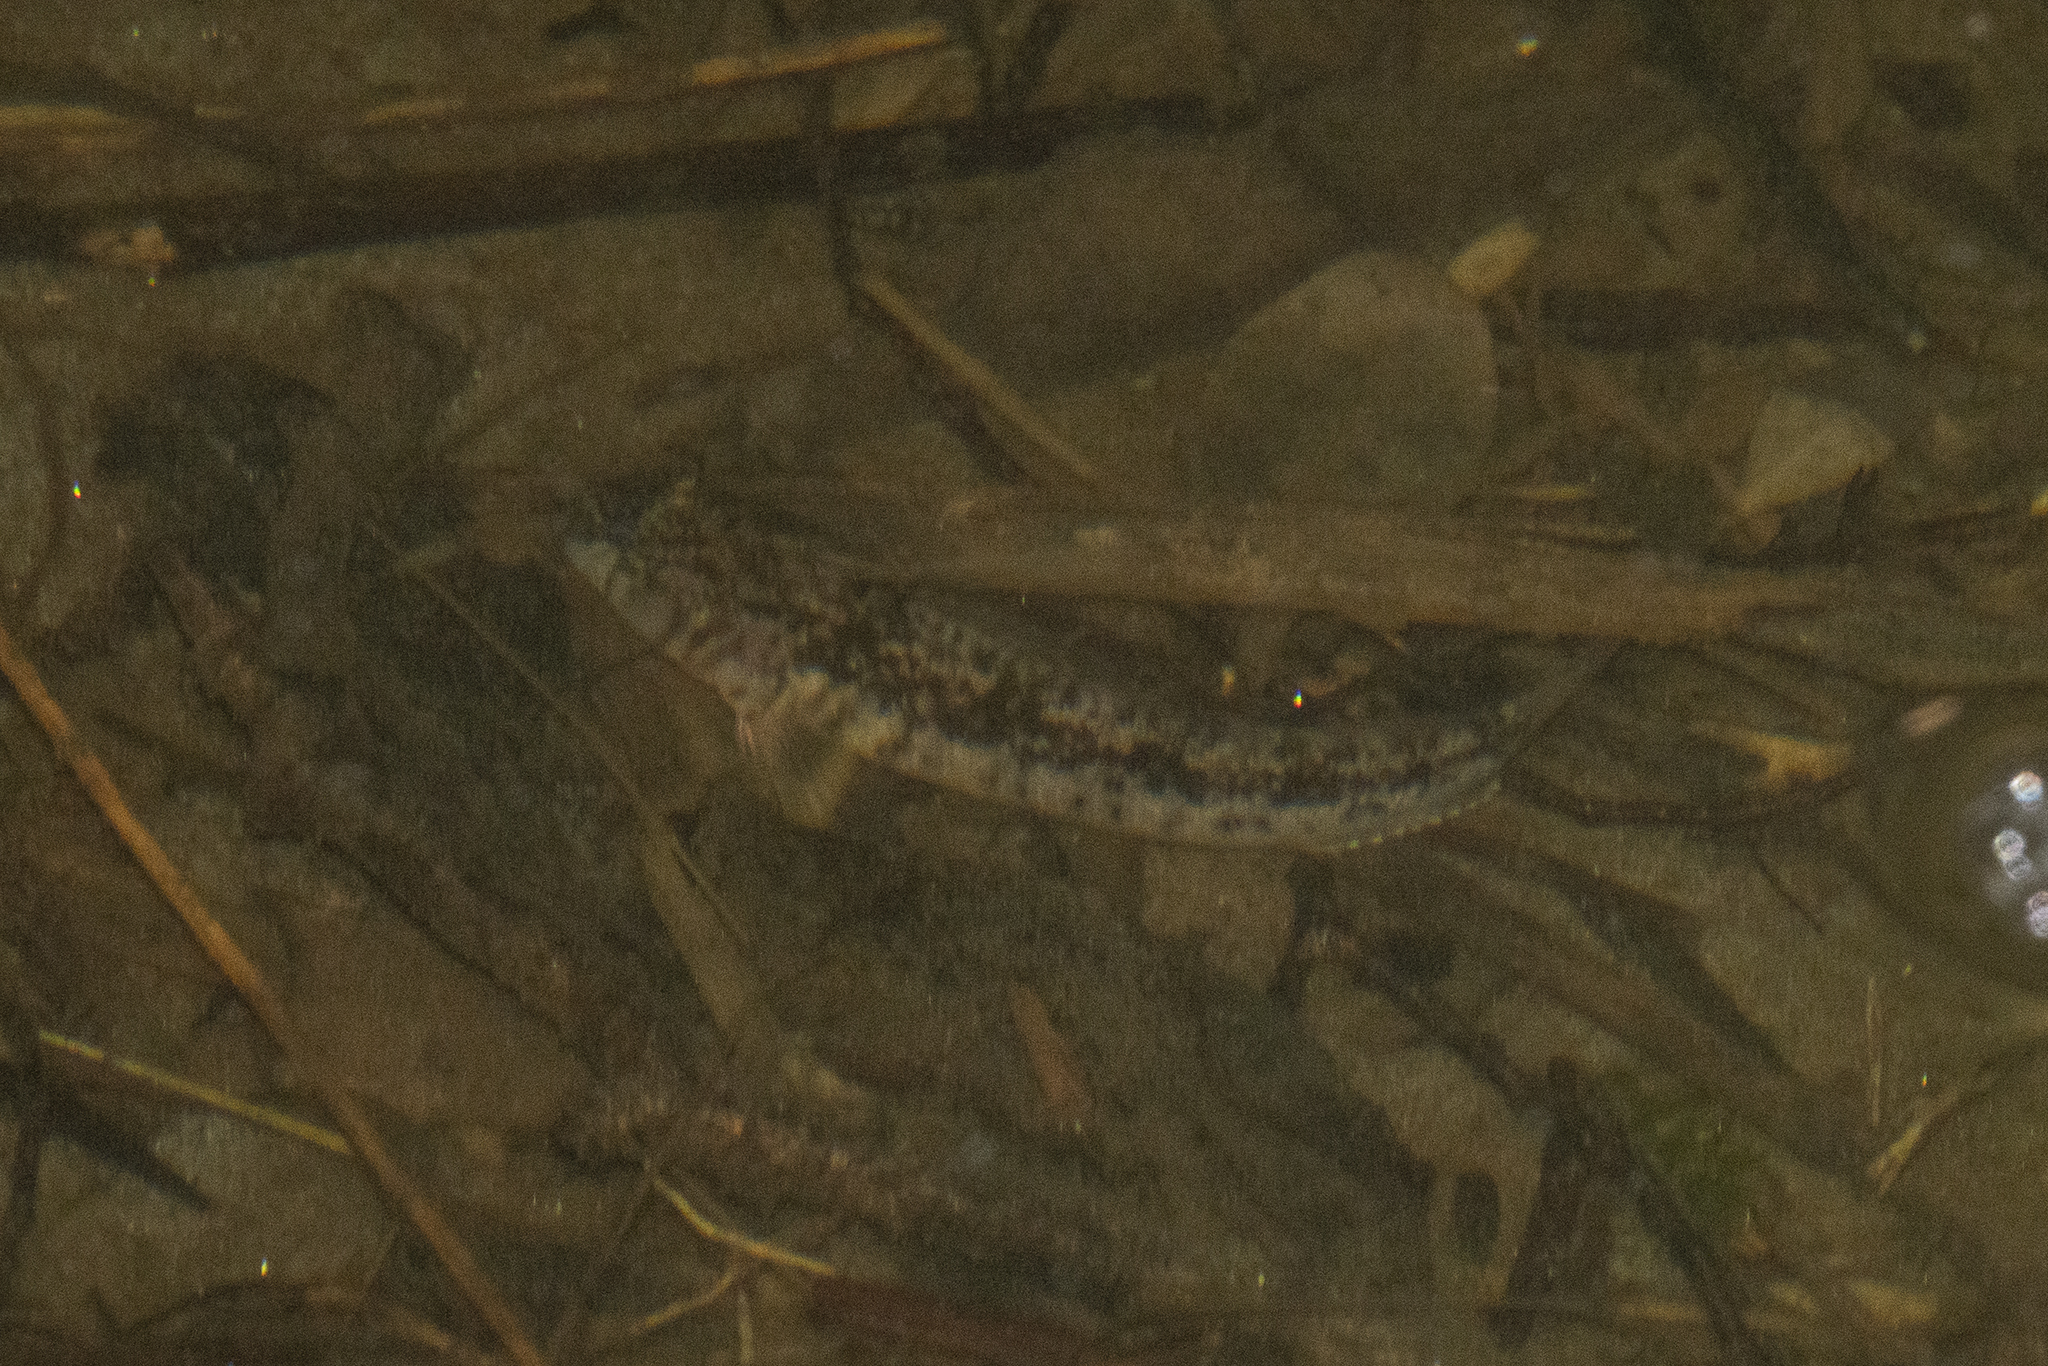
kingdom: Animalia
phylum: Chordata
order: Perciformes
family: Tripterygiidae
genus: Forsterygion
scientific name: Forsterygion nigripenne
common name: Cockabully
